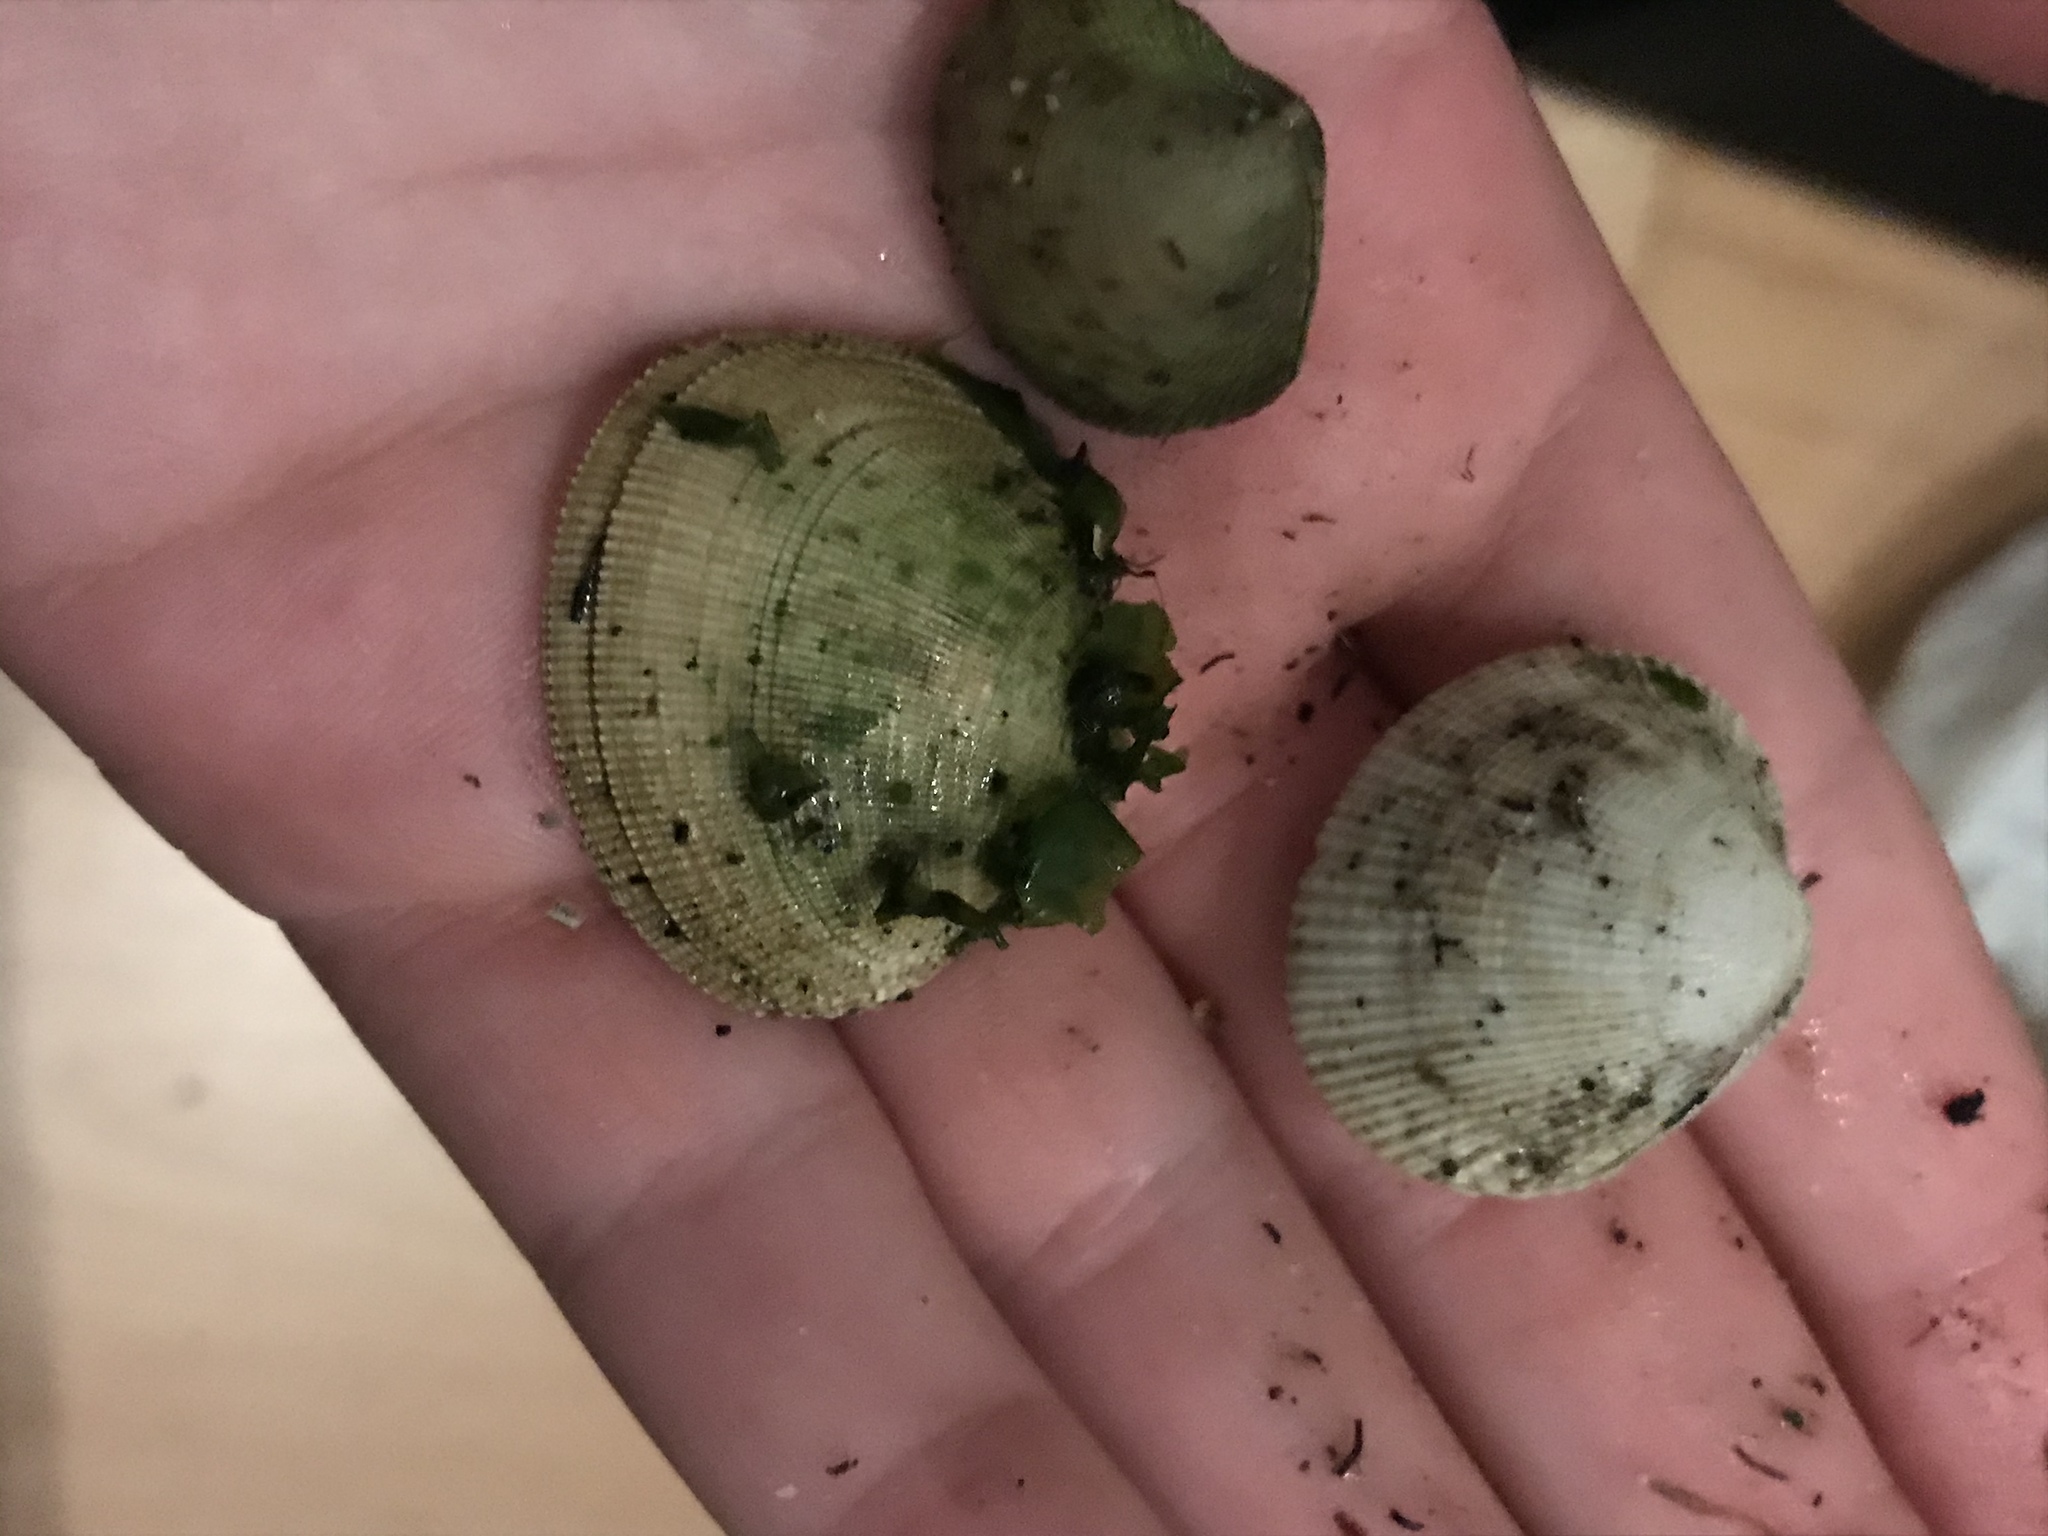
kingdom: Animalia
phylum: Mollusca
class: Bivalvia
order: Venerida
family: Veneridae
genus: Leukoma
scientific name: Leukoma staminea
